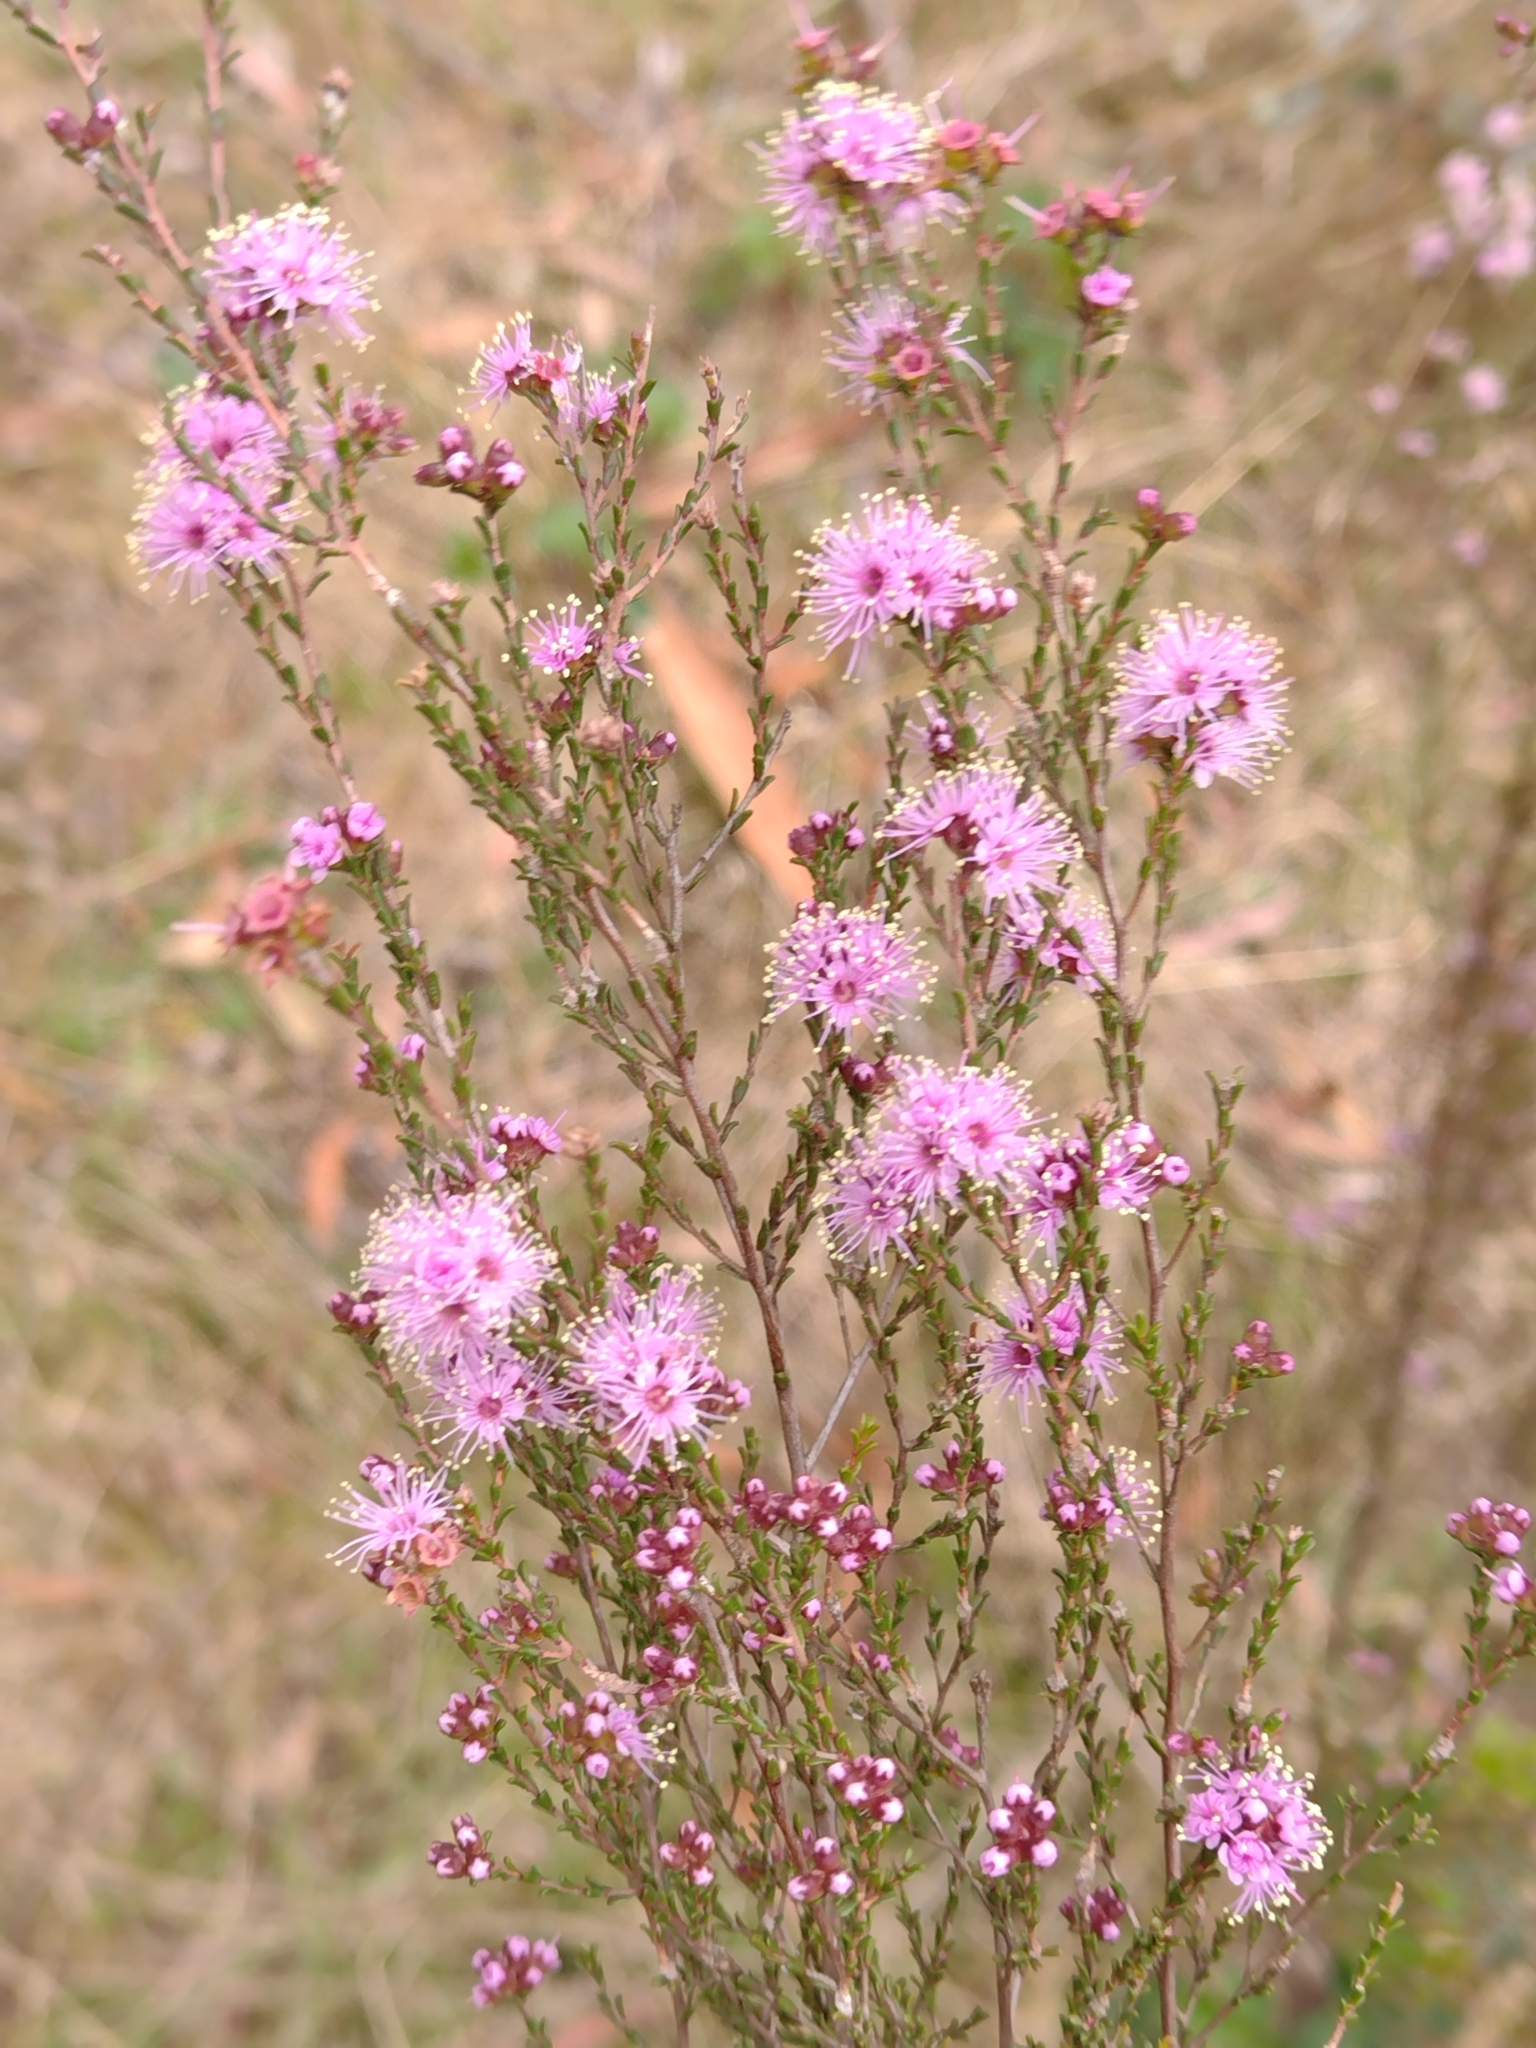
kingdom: Plantae
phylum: Tracheophyta
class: Magnoliopsida
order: Myrtales
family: Myrtaceae
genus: Kunzea
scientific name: Kunzea parvifolia
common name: Violet kunzea
